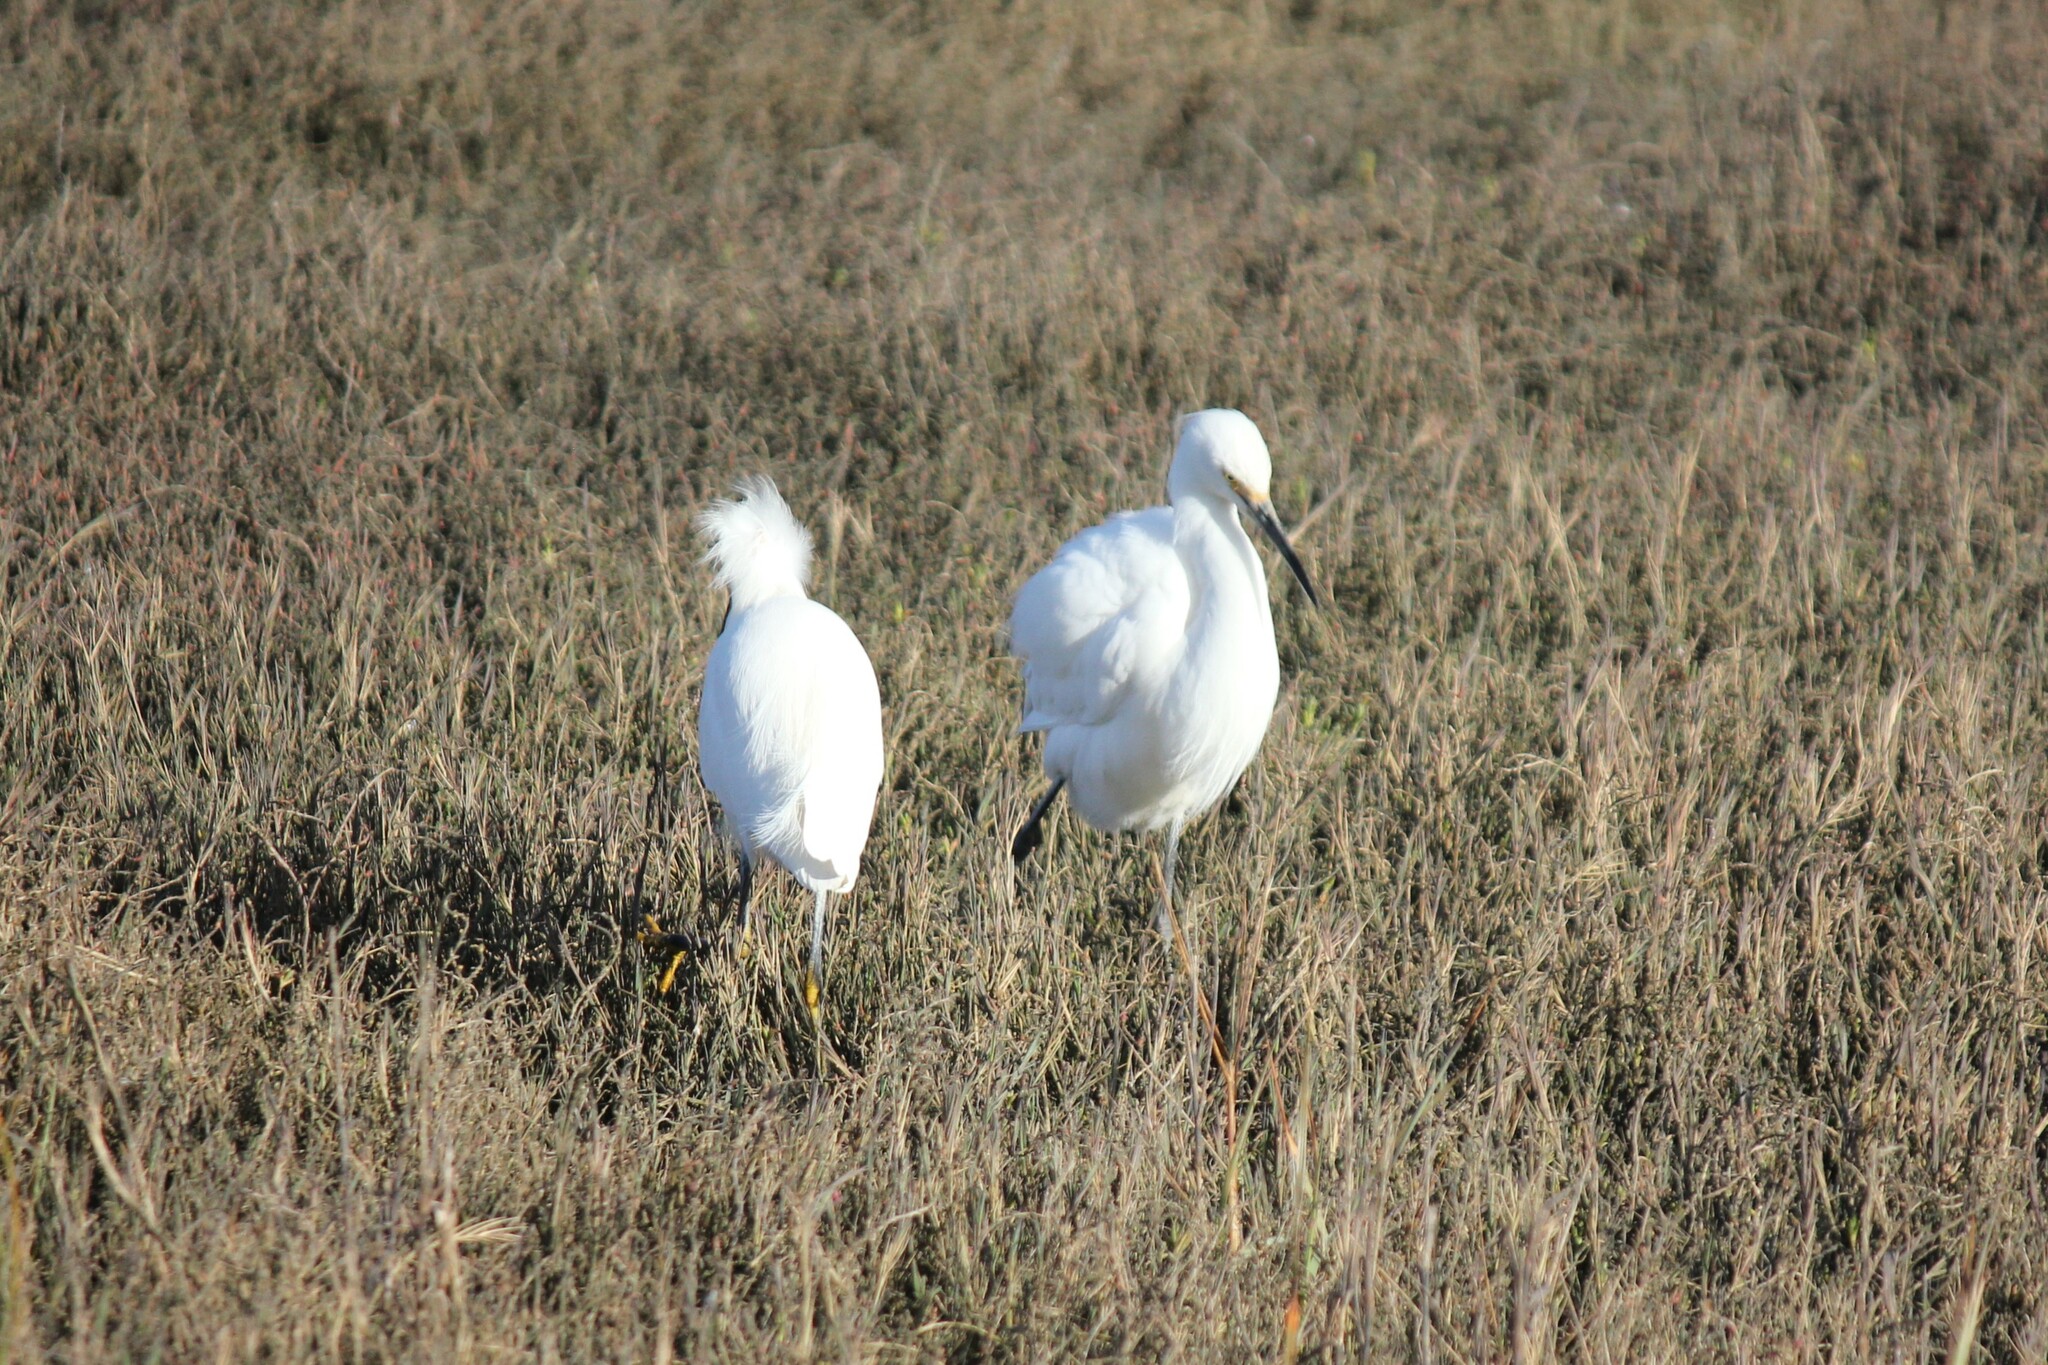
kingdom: Animalia
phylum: Chordata
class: Aves
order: Pelecaniformes
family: Ardeidae
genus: Egretta
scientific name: Egretta thula
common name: Snowy egret
